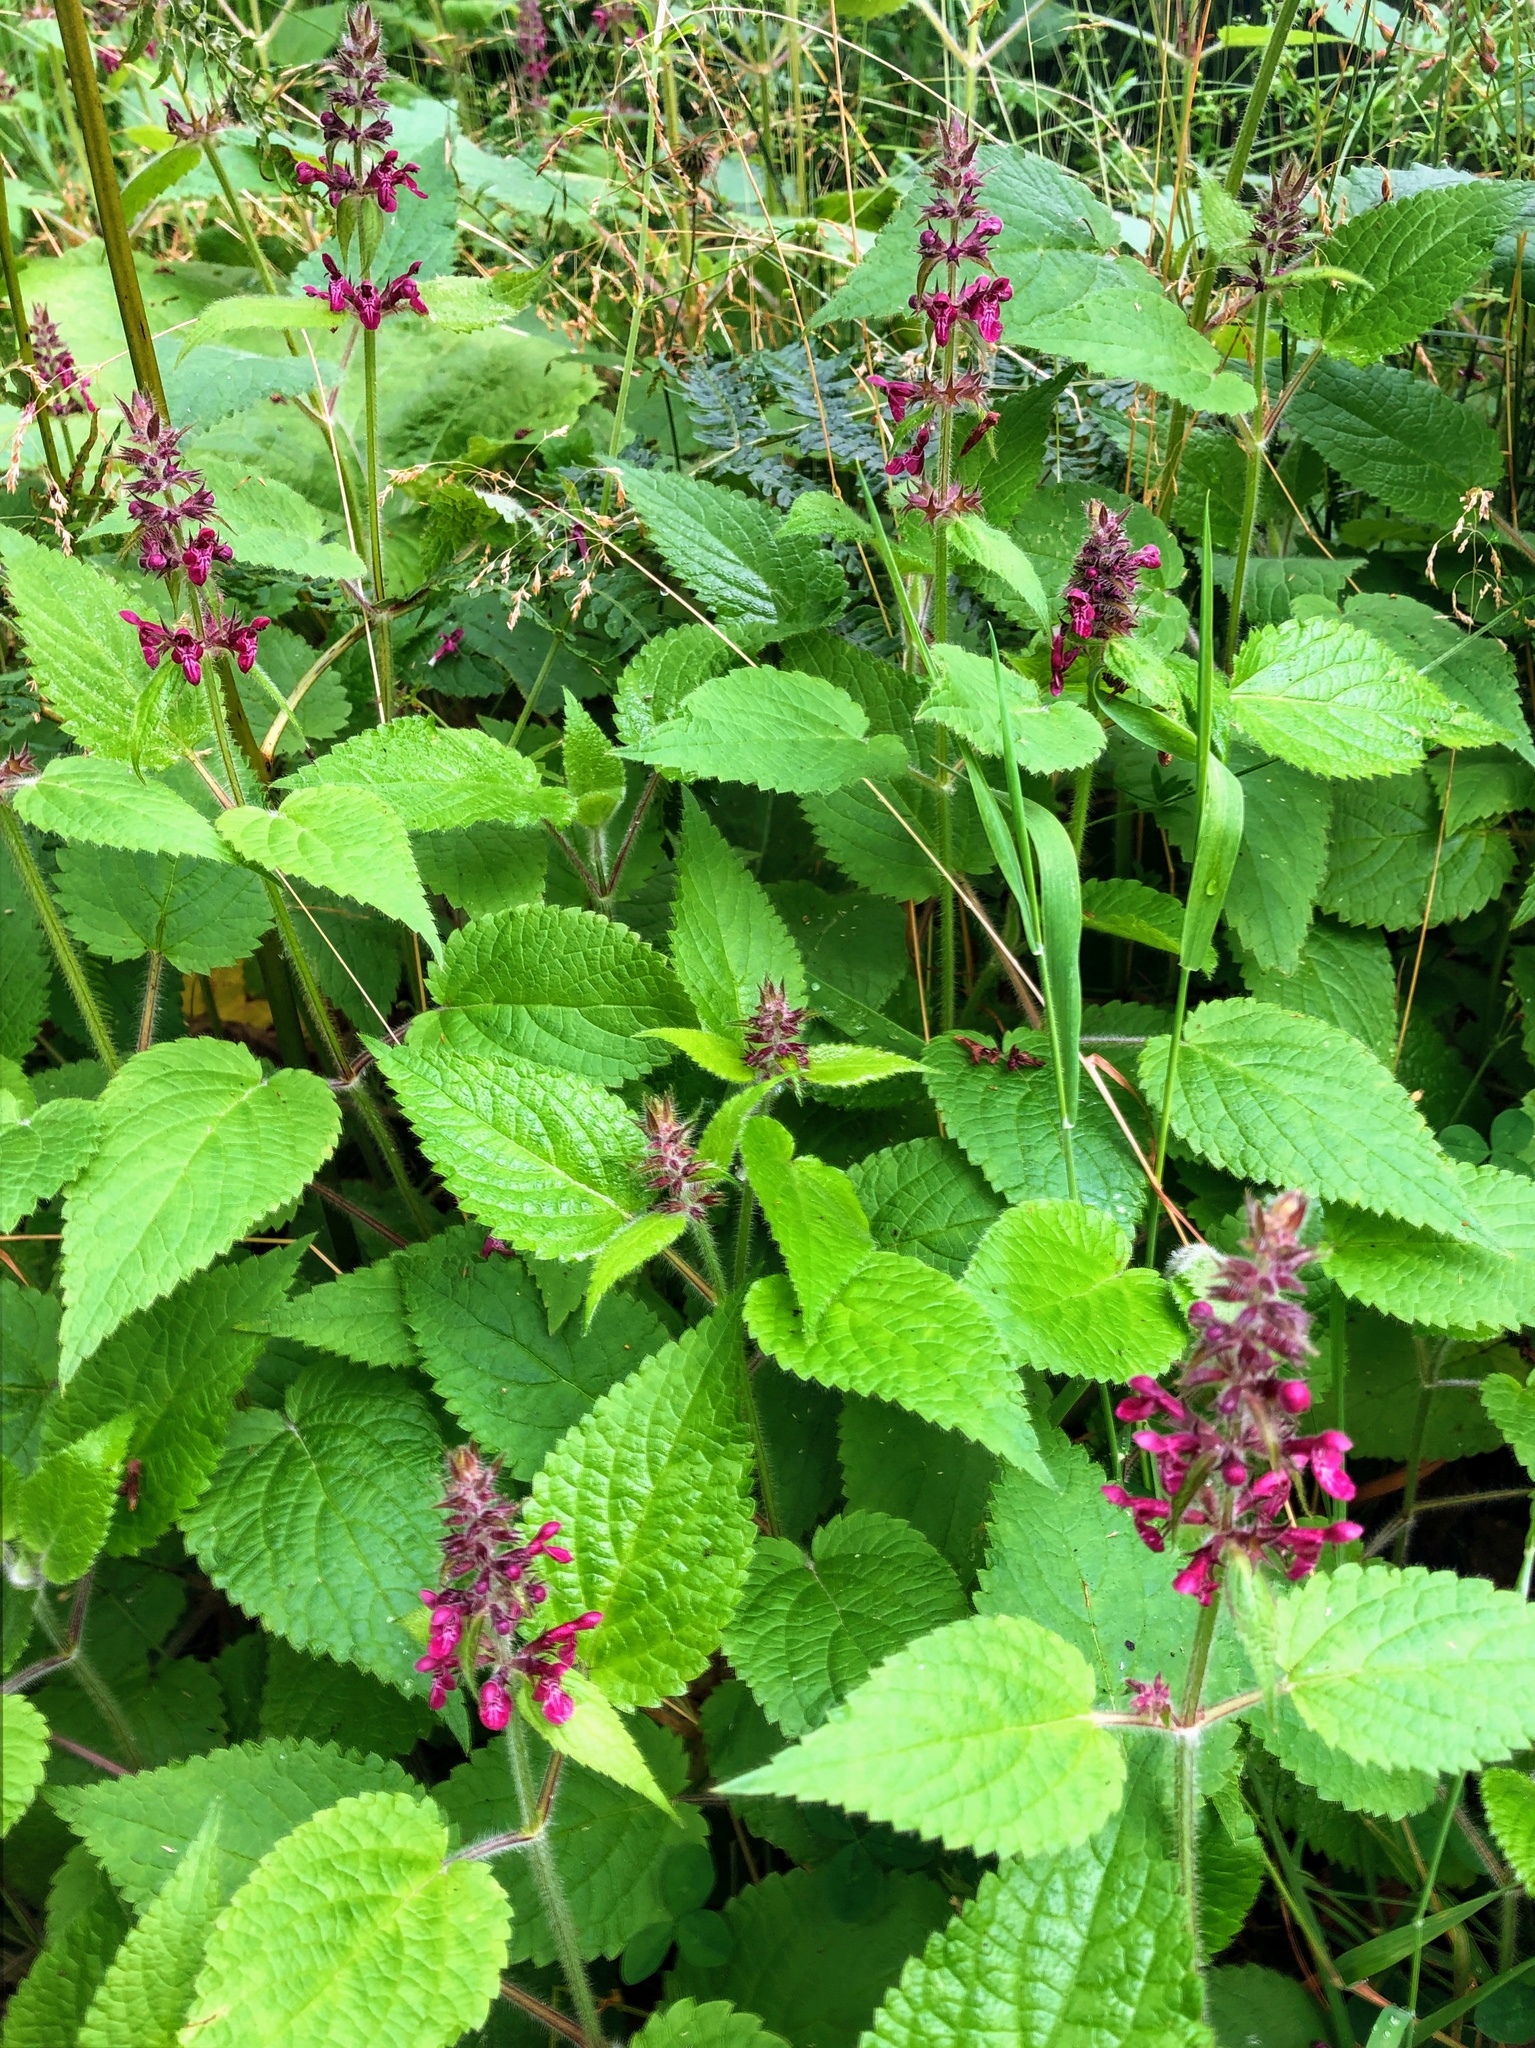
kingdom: Plantae
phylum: Tracheophyta
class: Magnoliopsida
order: Lamiales
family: Lamiaceae
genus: Stachys
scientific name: Stachys sylvatica
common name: Hedge woundwort
